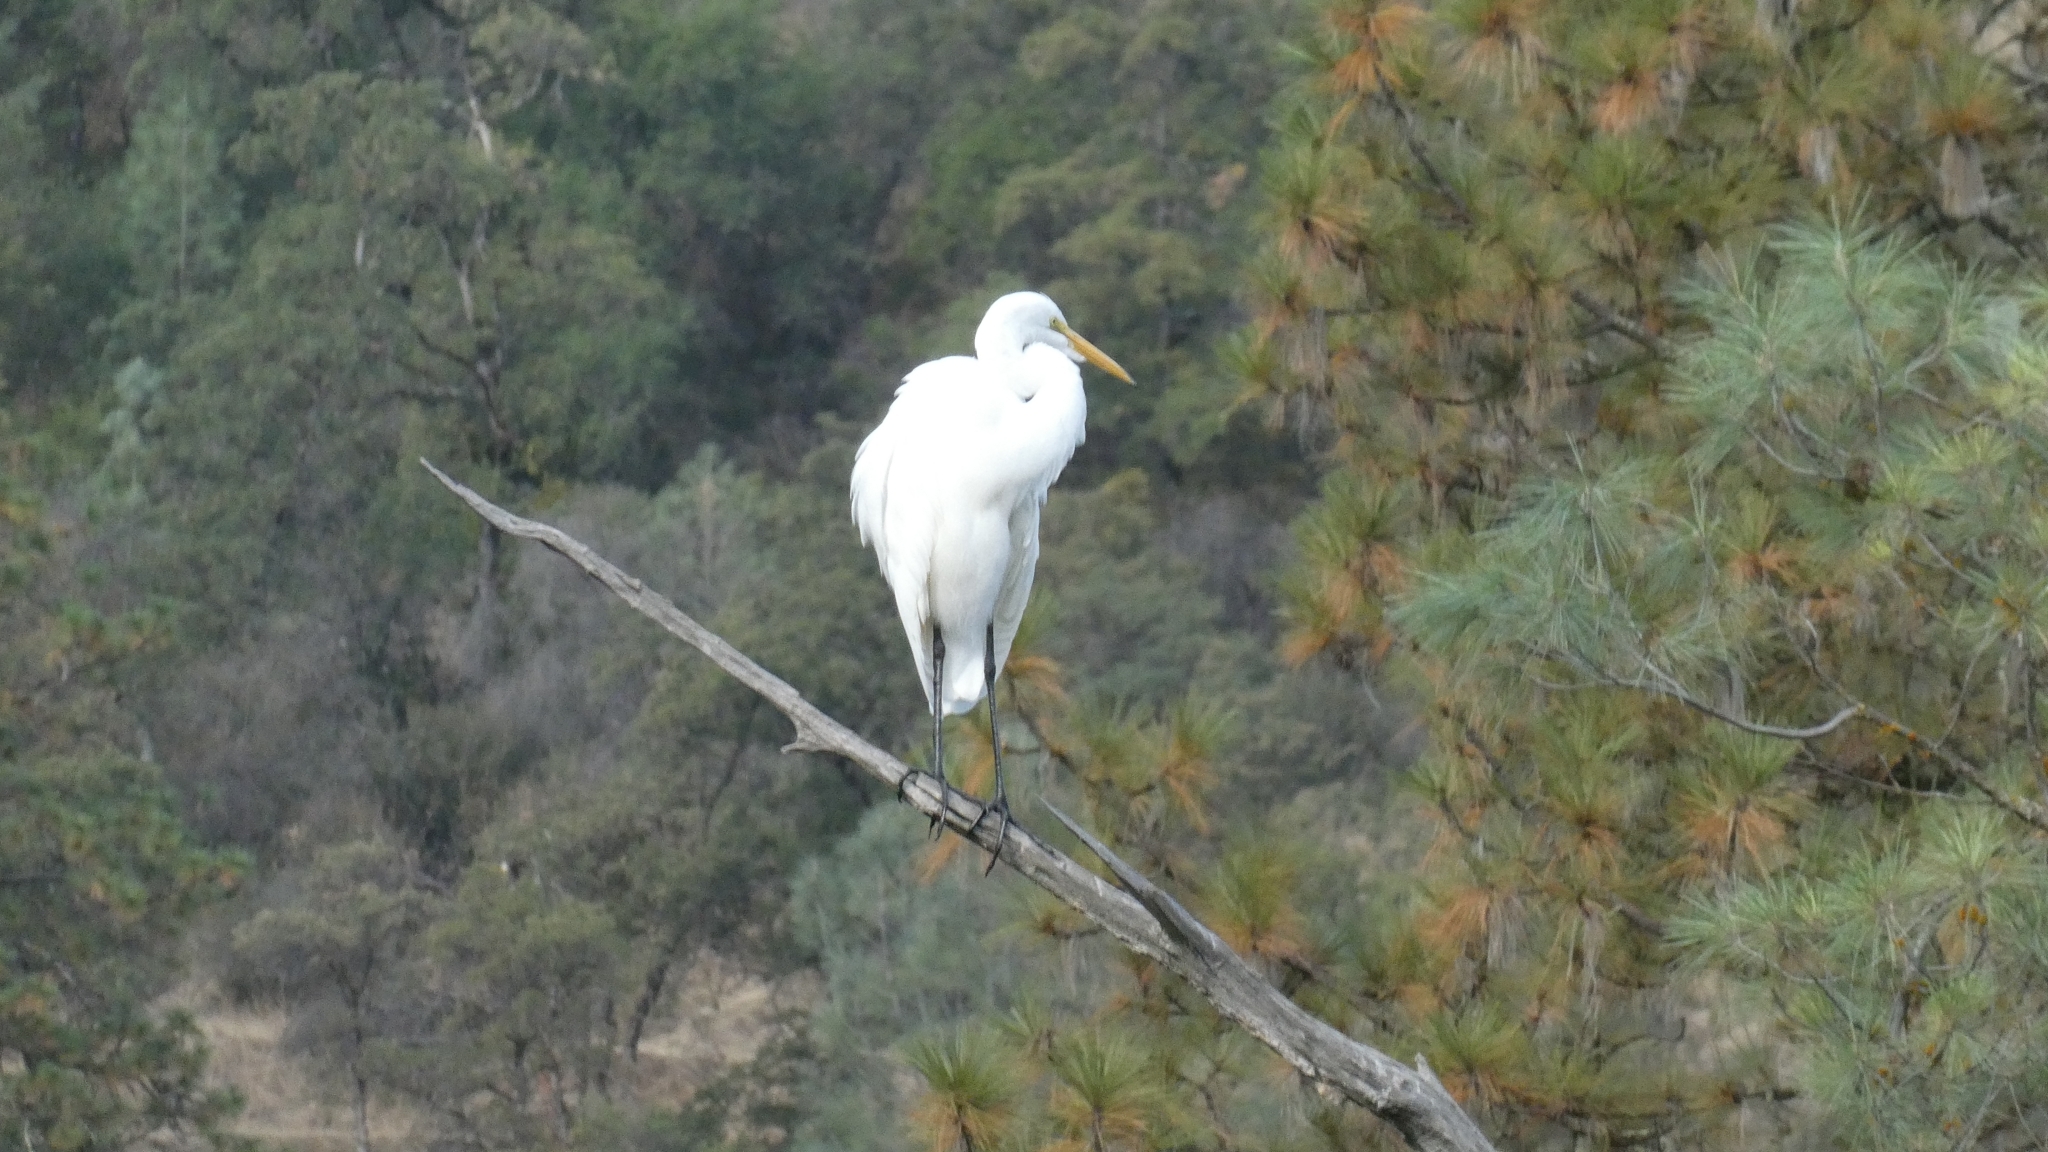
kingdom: Animalia
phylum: Chordata
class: Aves
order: Pelecaniformes
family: Ardeidae
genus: Ardea
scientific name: Ardea alba
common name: Great egret
